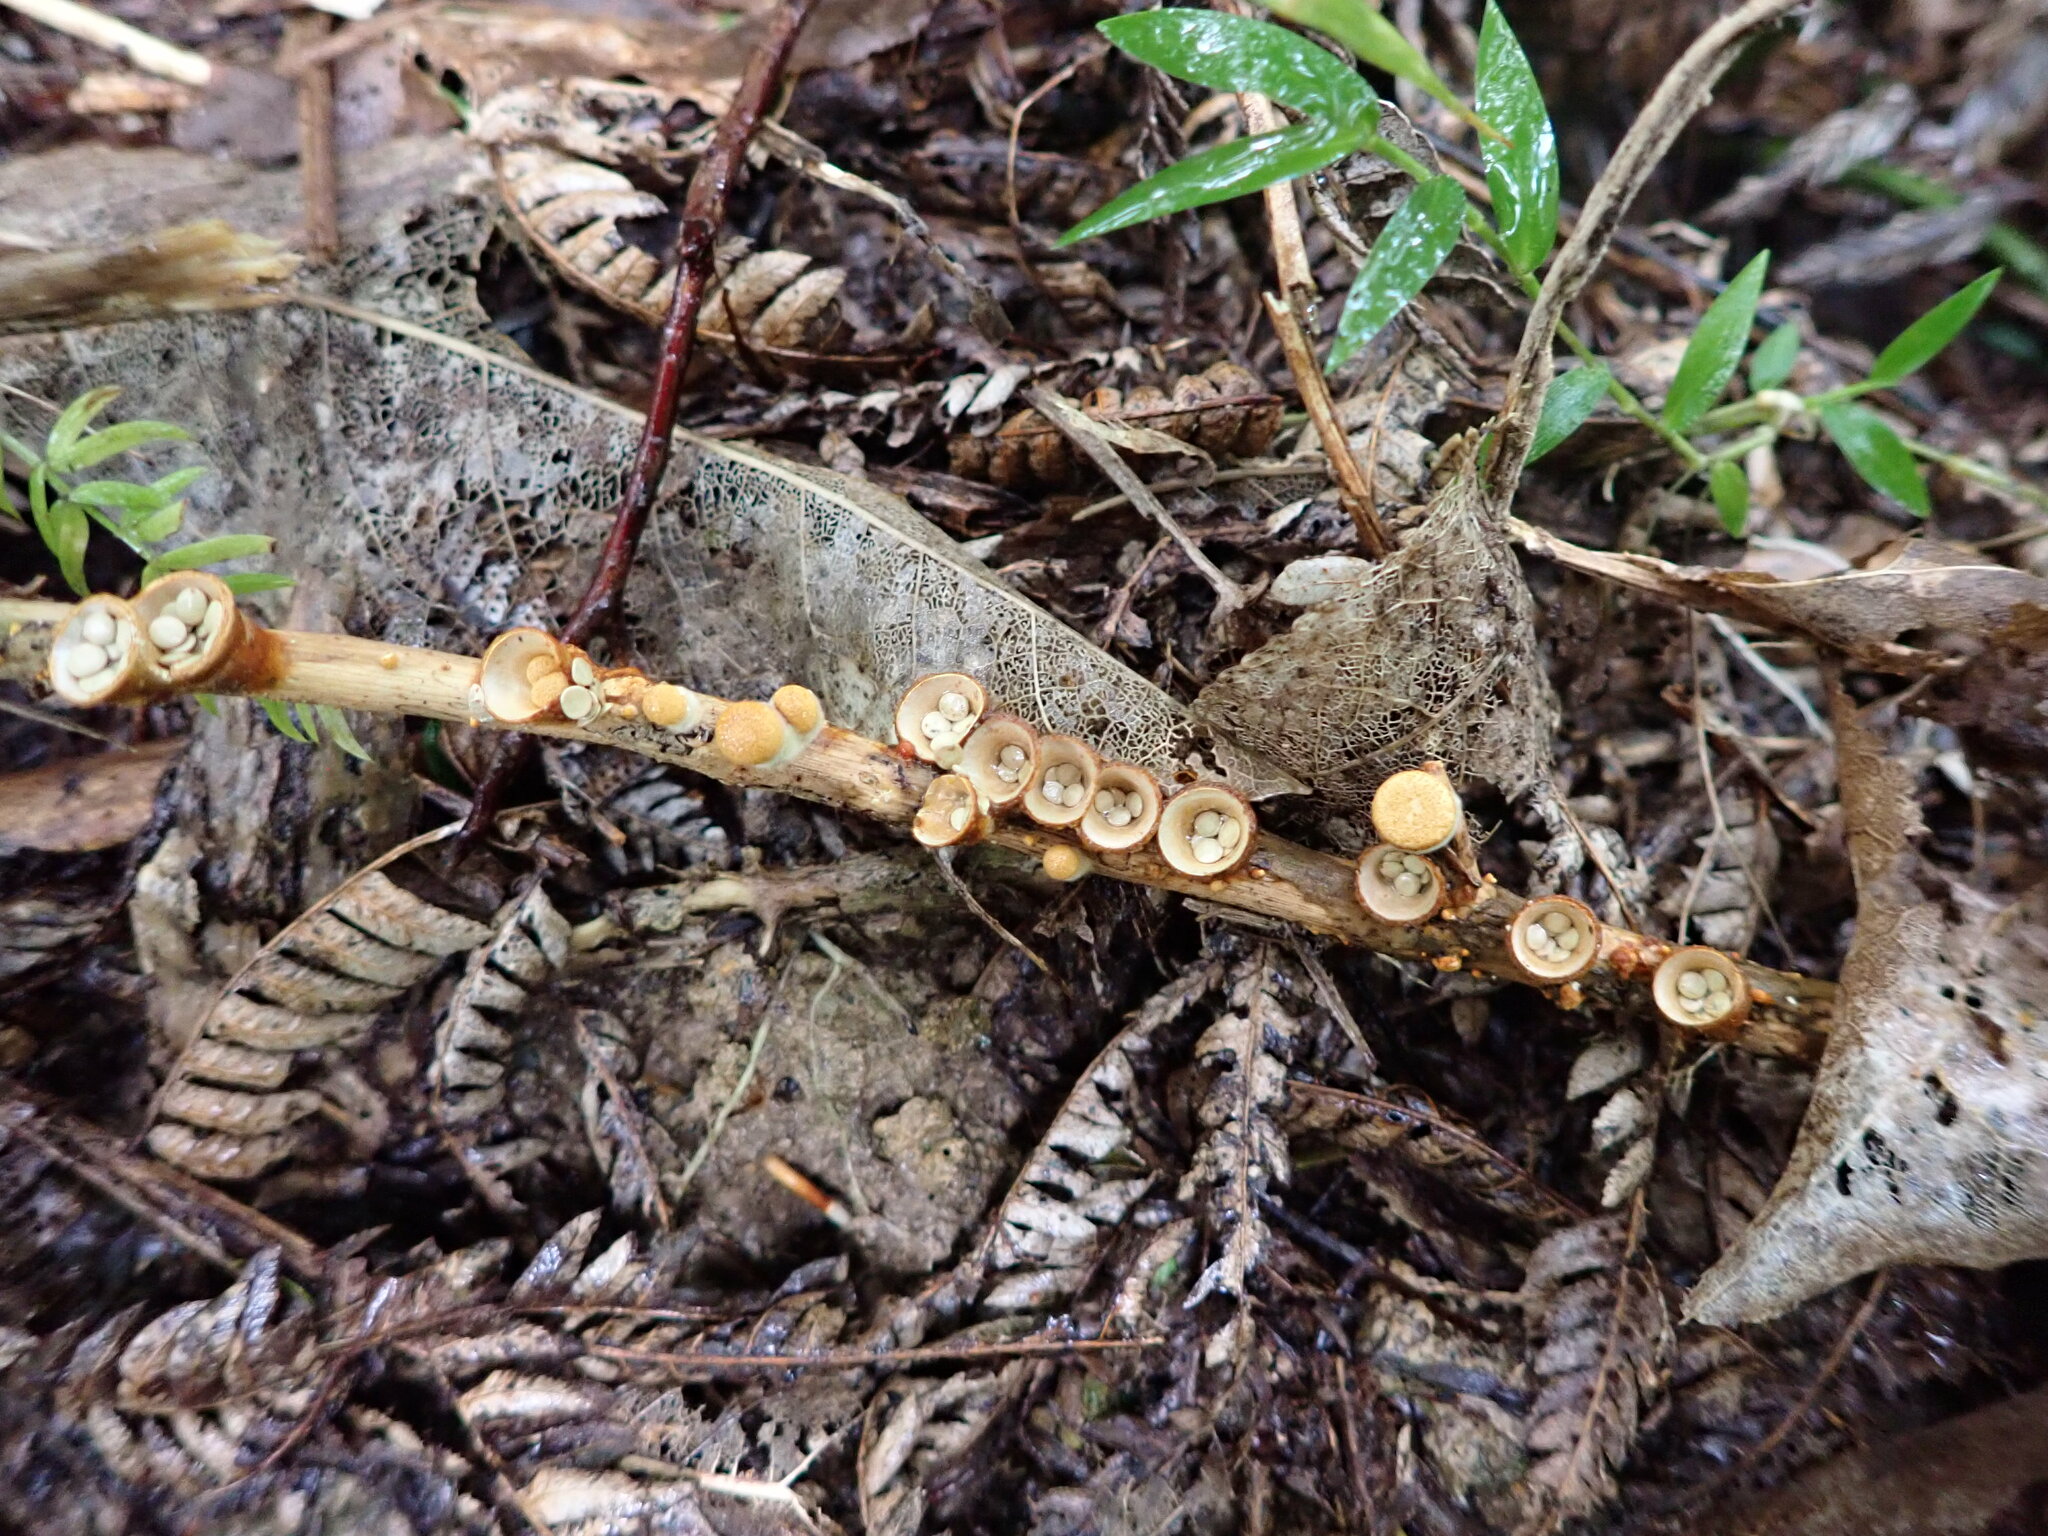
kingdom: Fungi
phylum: Basidiomycota
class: Agaricomycetes
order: Agaricales
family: Nidulariaceae
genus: Crucibulum
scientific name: Crucibulum simile
